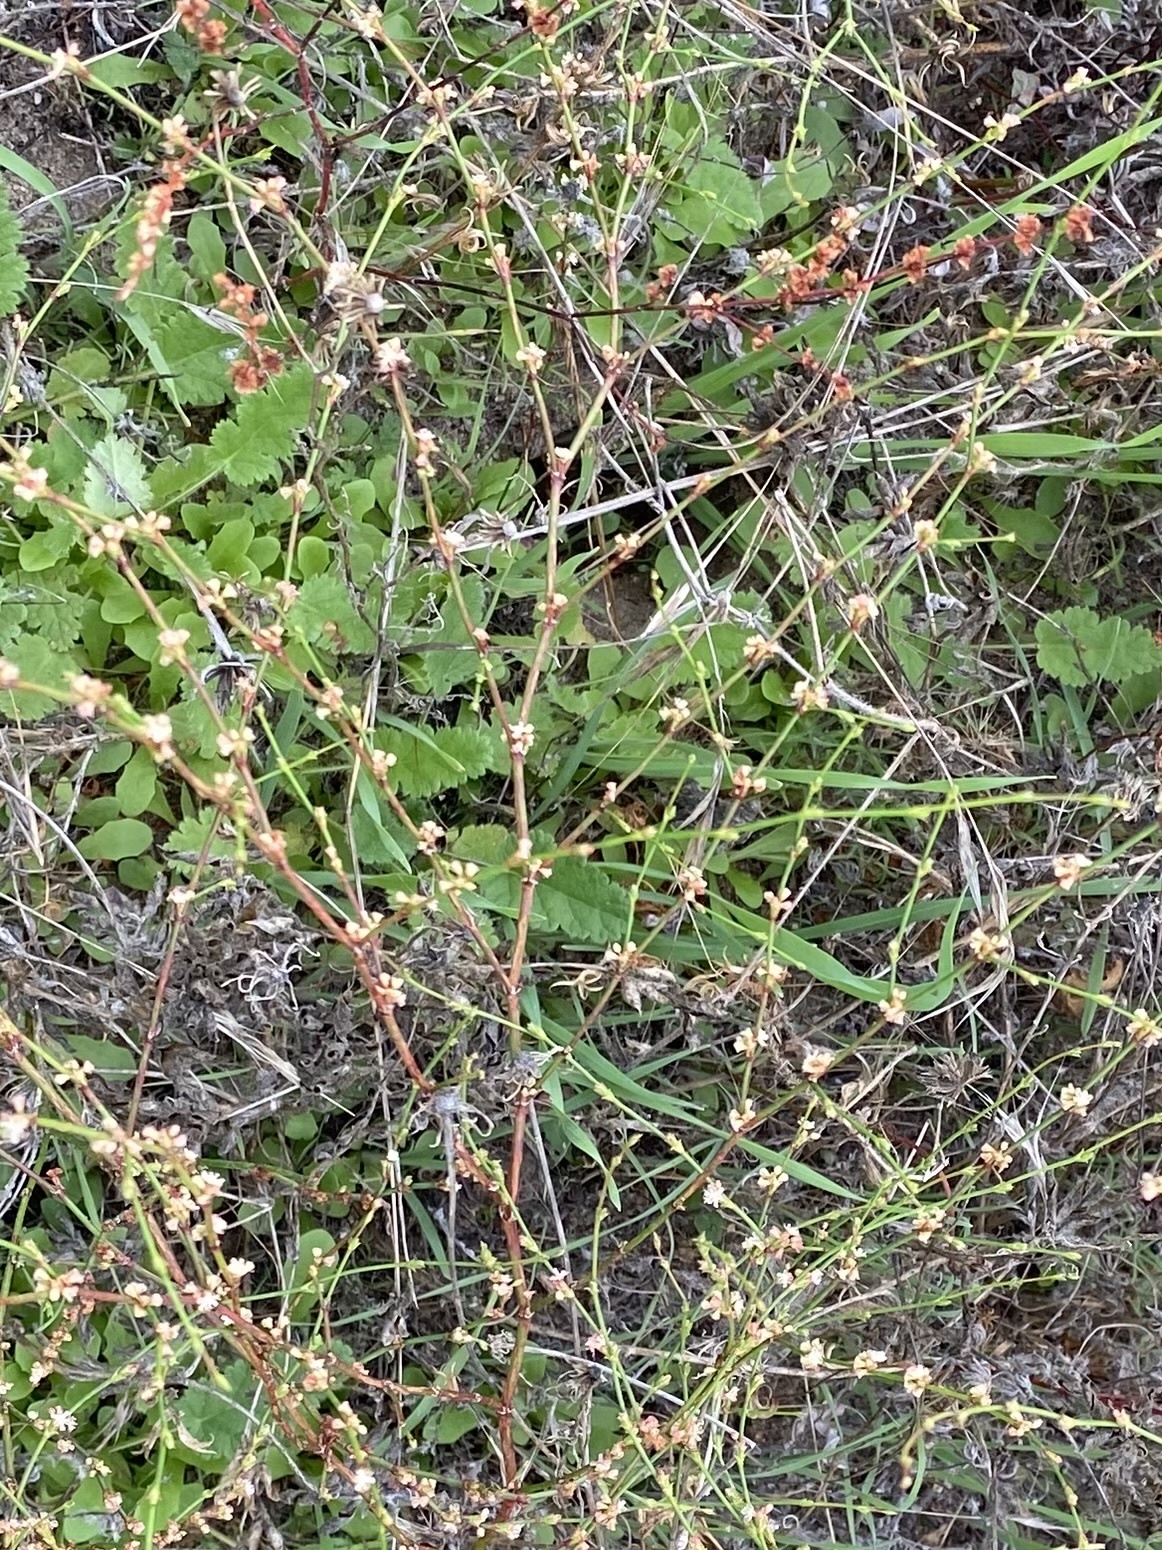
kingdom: Plantae
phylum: Tracheophyta
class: Magnoliopsida
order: Caryophyllales
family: Polygonaceae
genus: Eriogonum
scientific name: Eriogonum gracile
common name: Slender woolly buckwheat
